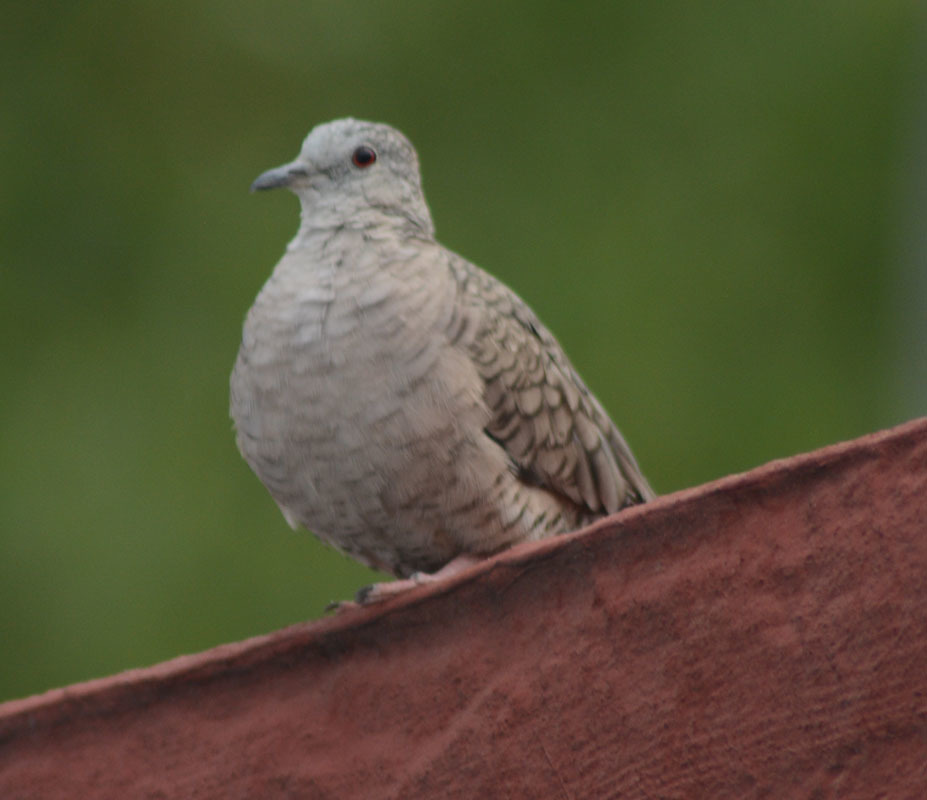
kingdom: Animalia
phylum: Chordata
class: Aves
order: Columbiformes
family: Columbidae
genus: Columbina
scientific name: Columbina inca
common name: Inca dove
